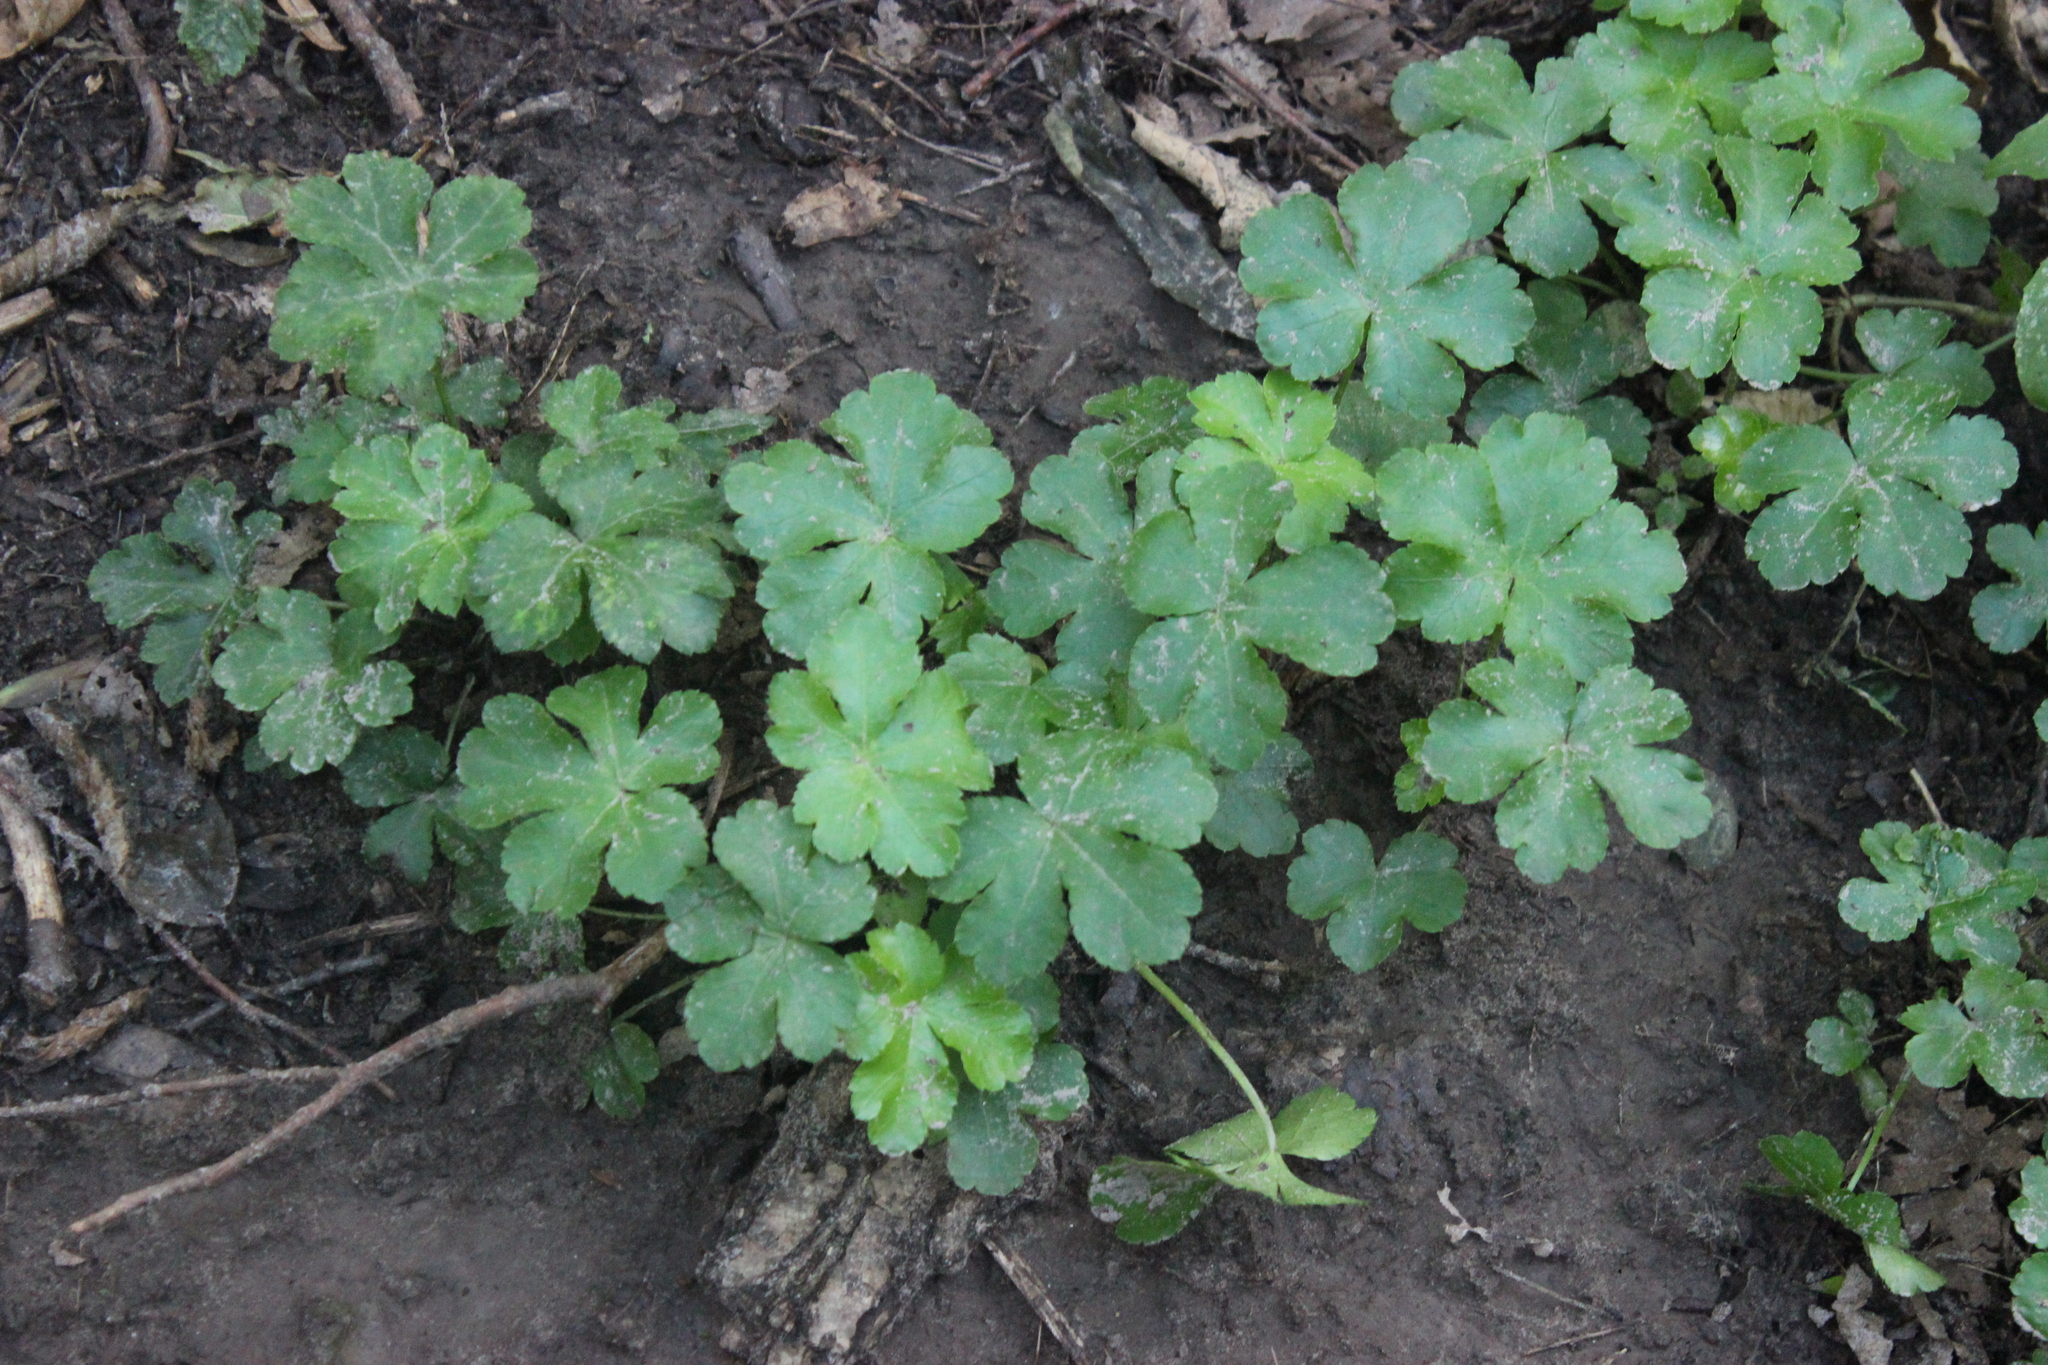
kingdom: Plantae
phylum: Tracheophyta
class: Magnoliopsida
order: Apiales
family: Apiaceae
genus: Sanicula
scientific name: Sanicula europaea
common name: Sanicle
